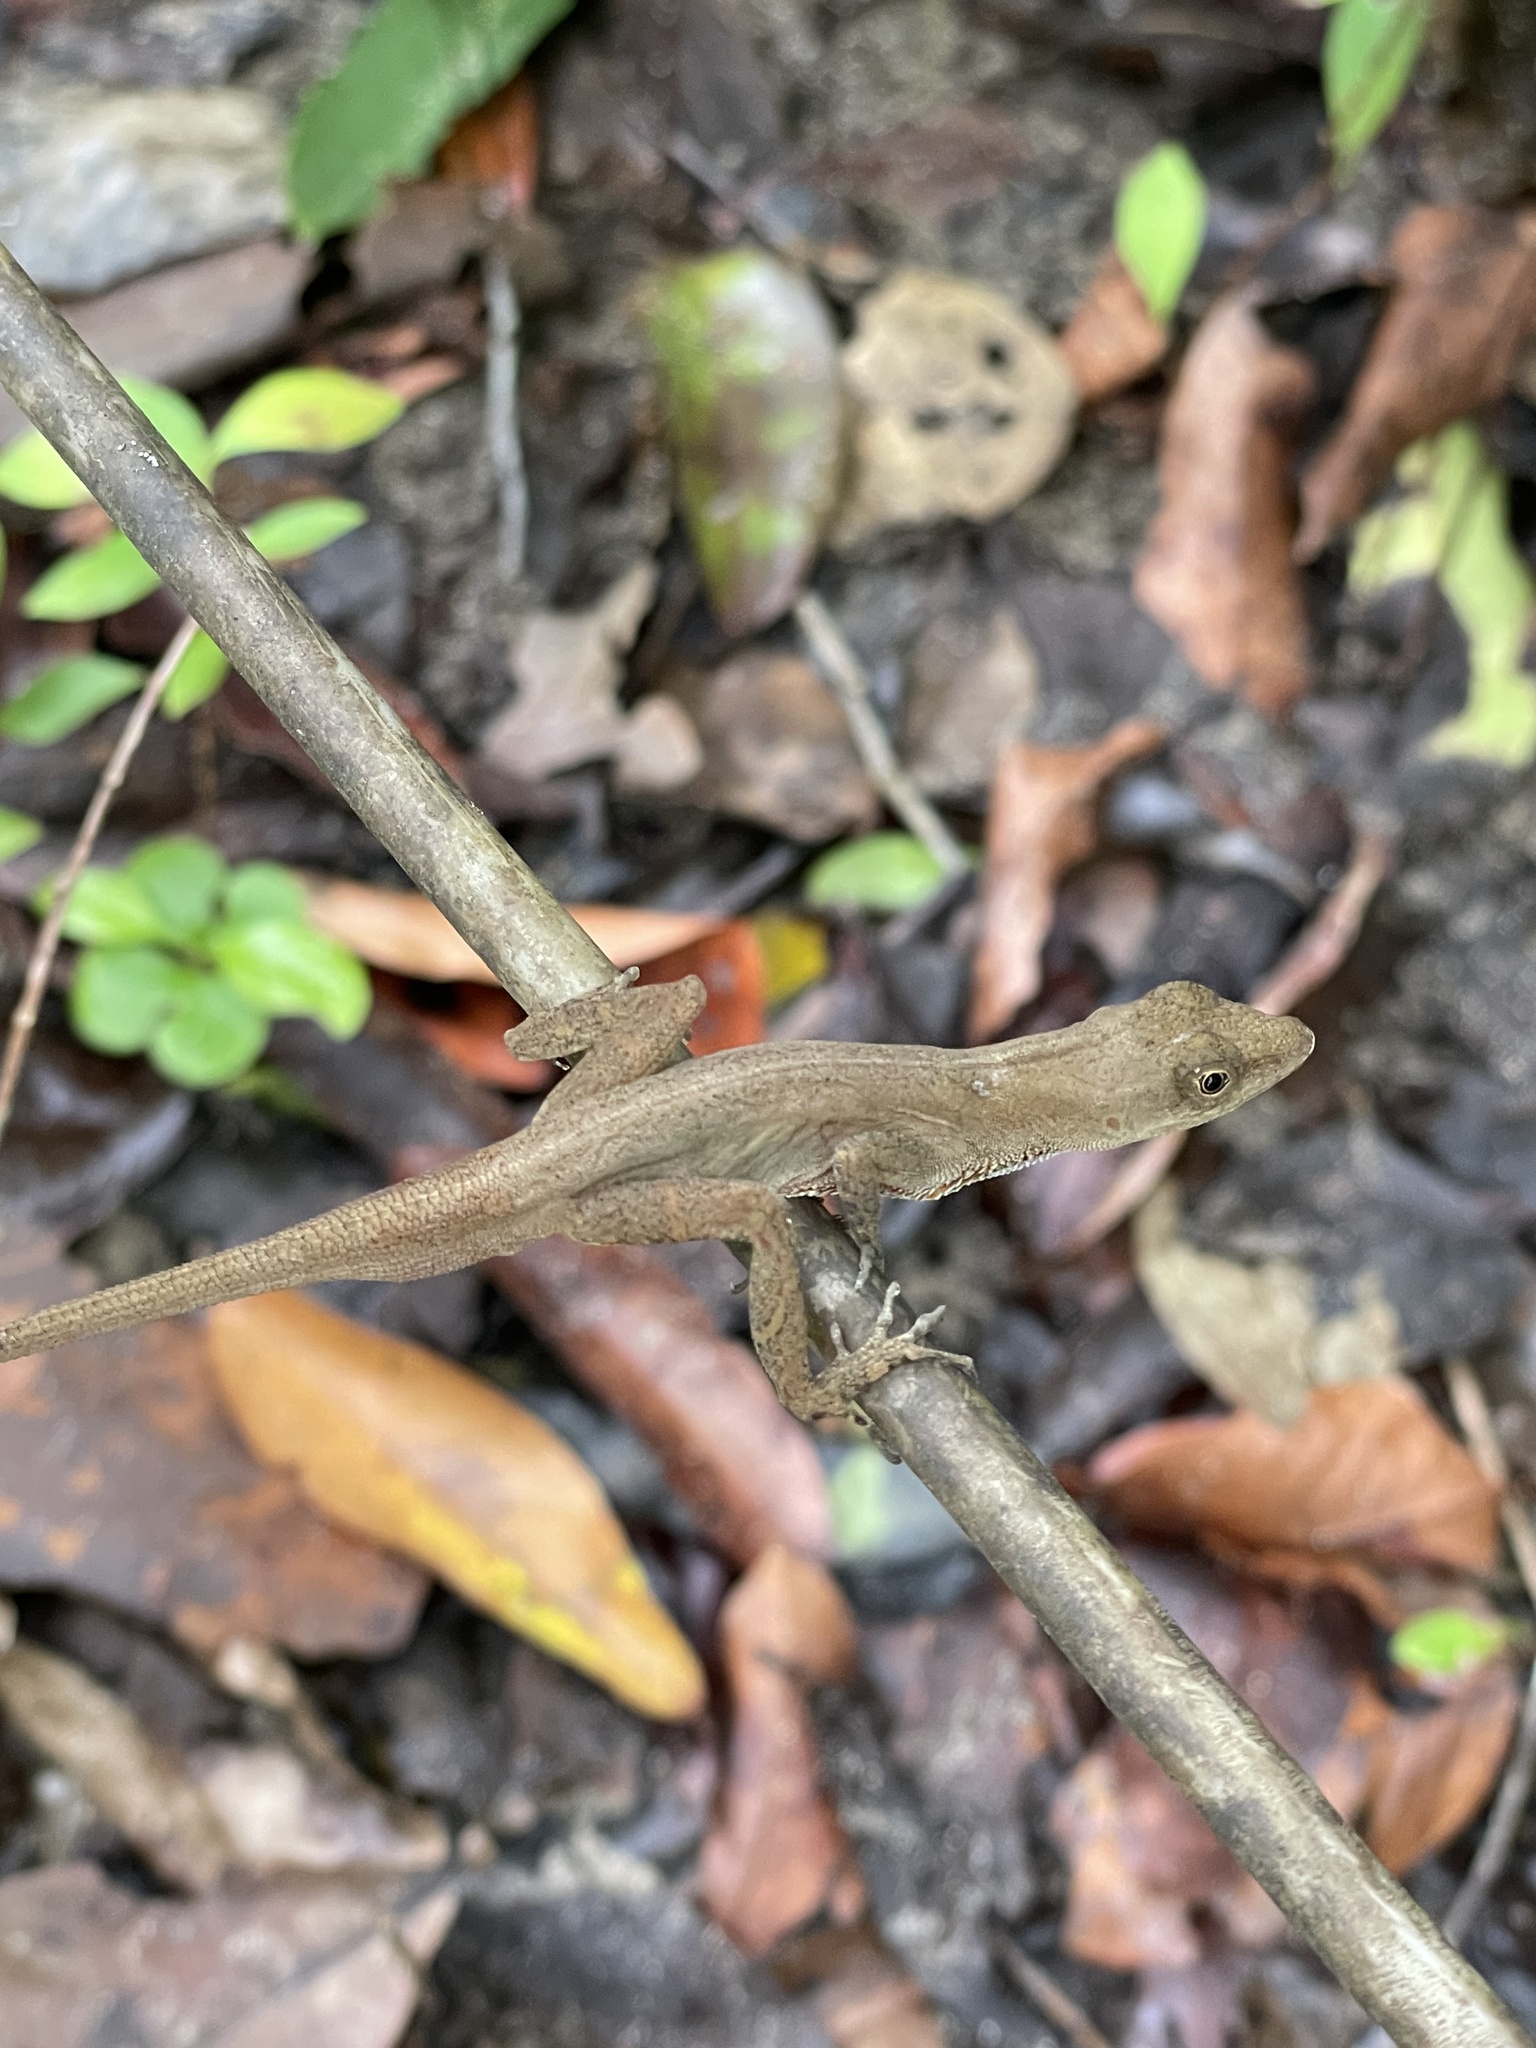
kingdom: Animalia
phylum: Chordata
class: Squamata
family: Dactyloidae
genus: Anolis
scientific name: Anolis cupreus
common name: Copper anole
